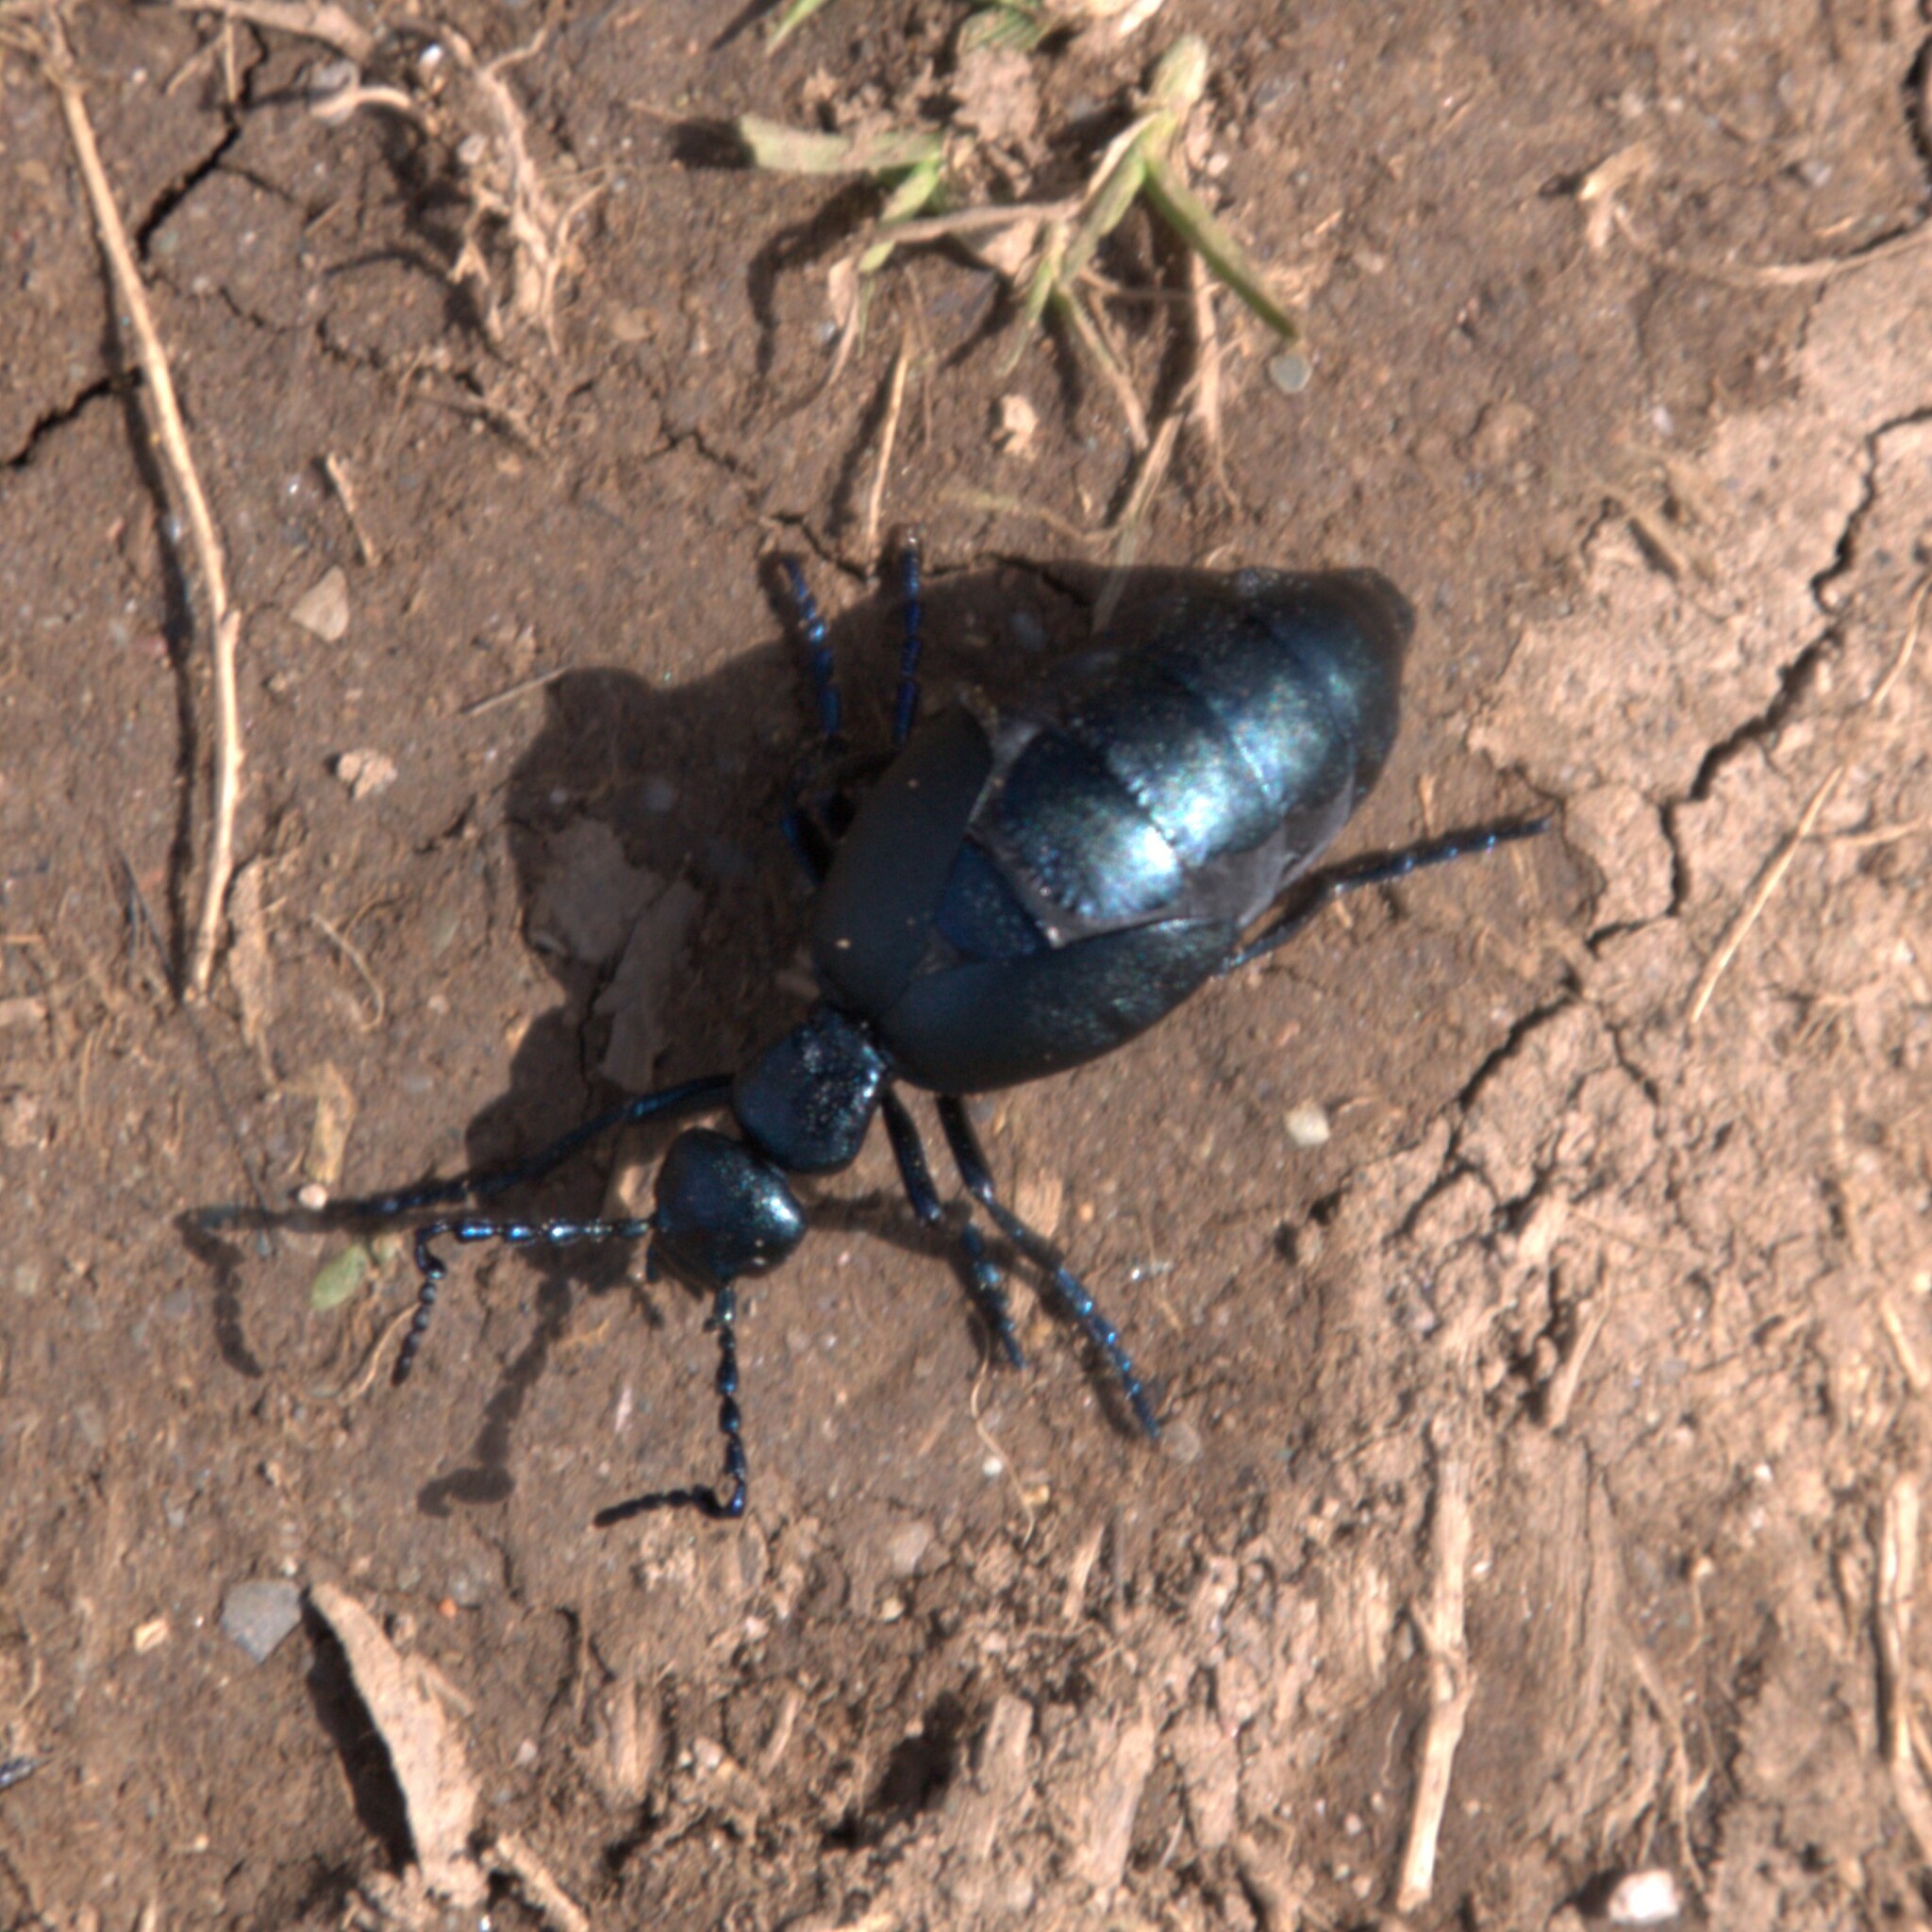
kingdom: Animalia
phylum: Arthropoda
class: Insecta
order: Coleoptera
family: Meloidae
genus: Meloe
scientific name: Meloe violaceus
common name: Violet oil-beetle
